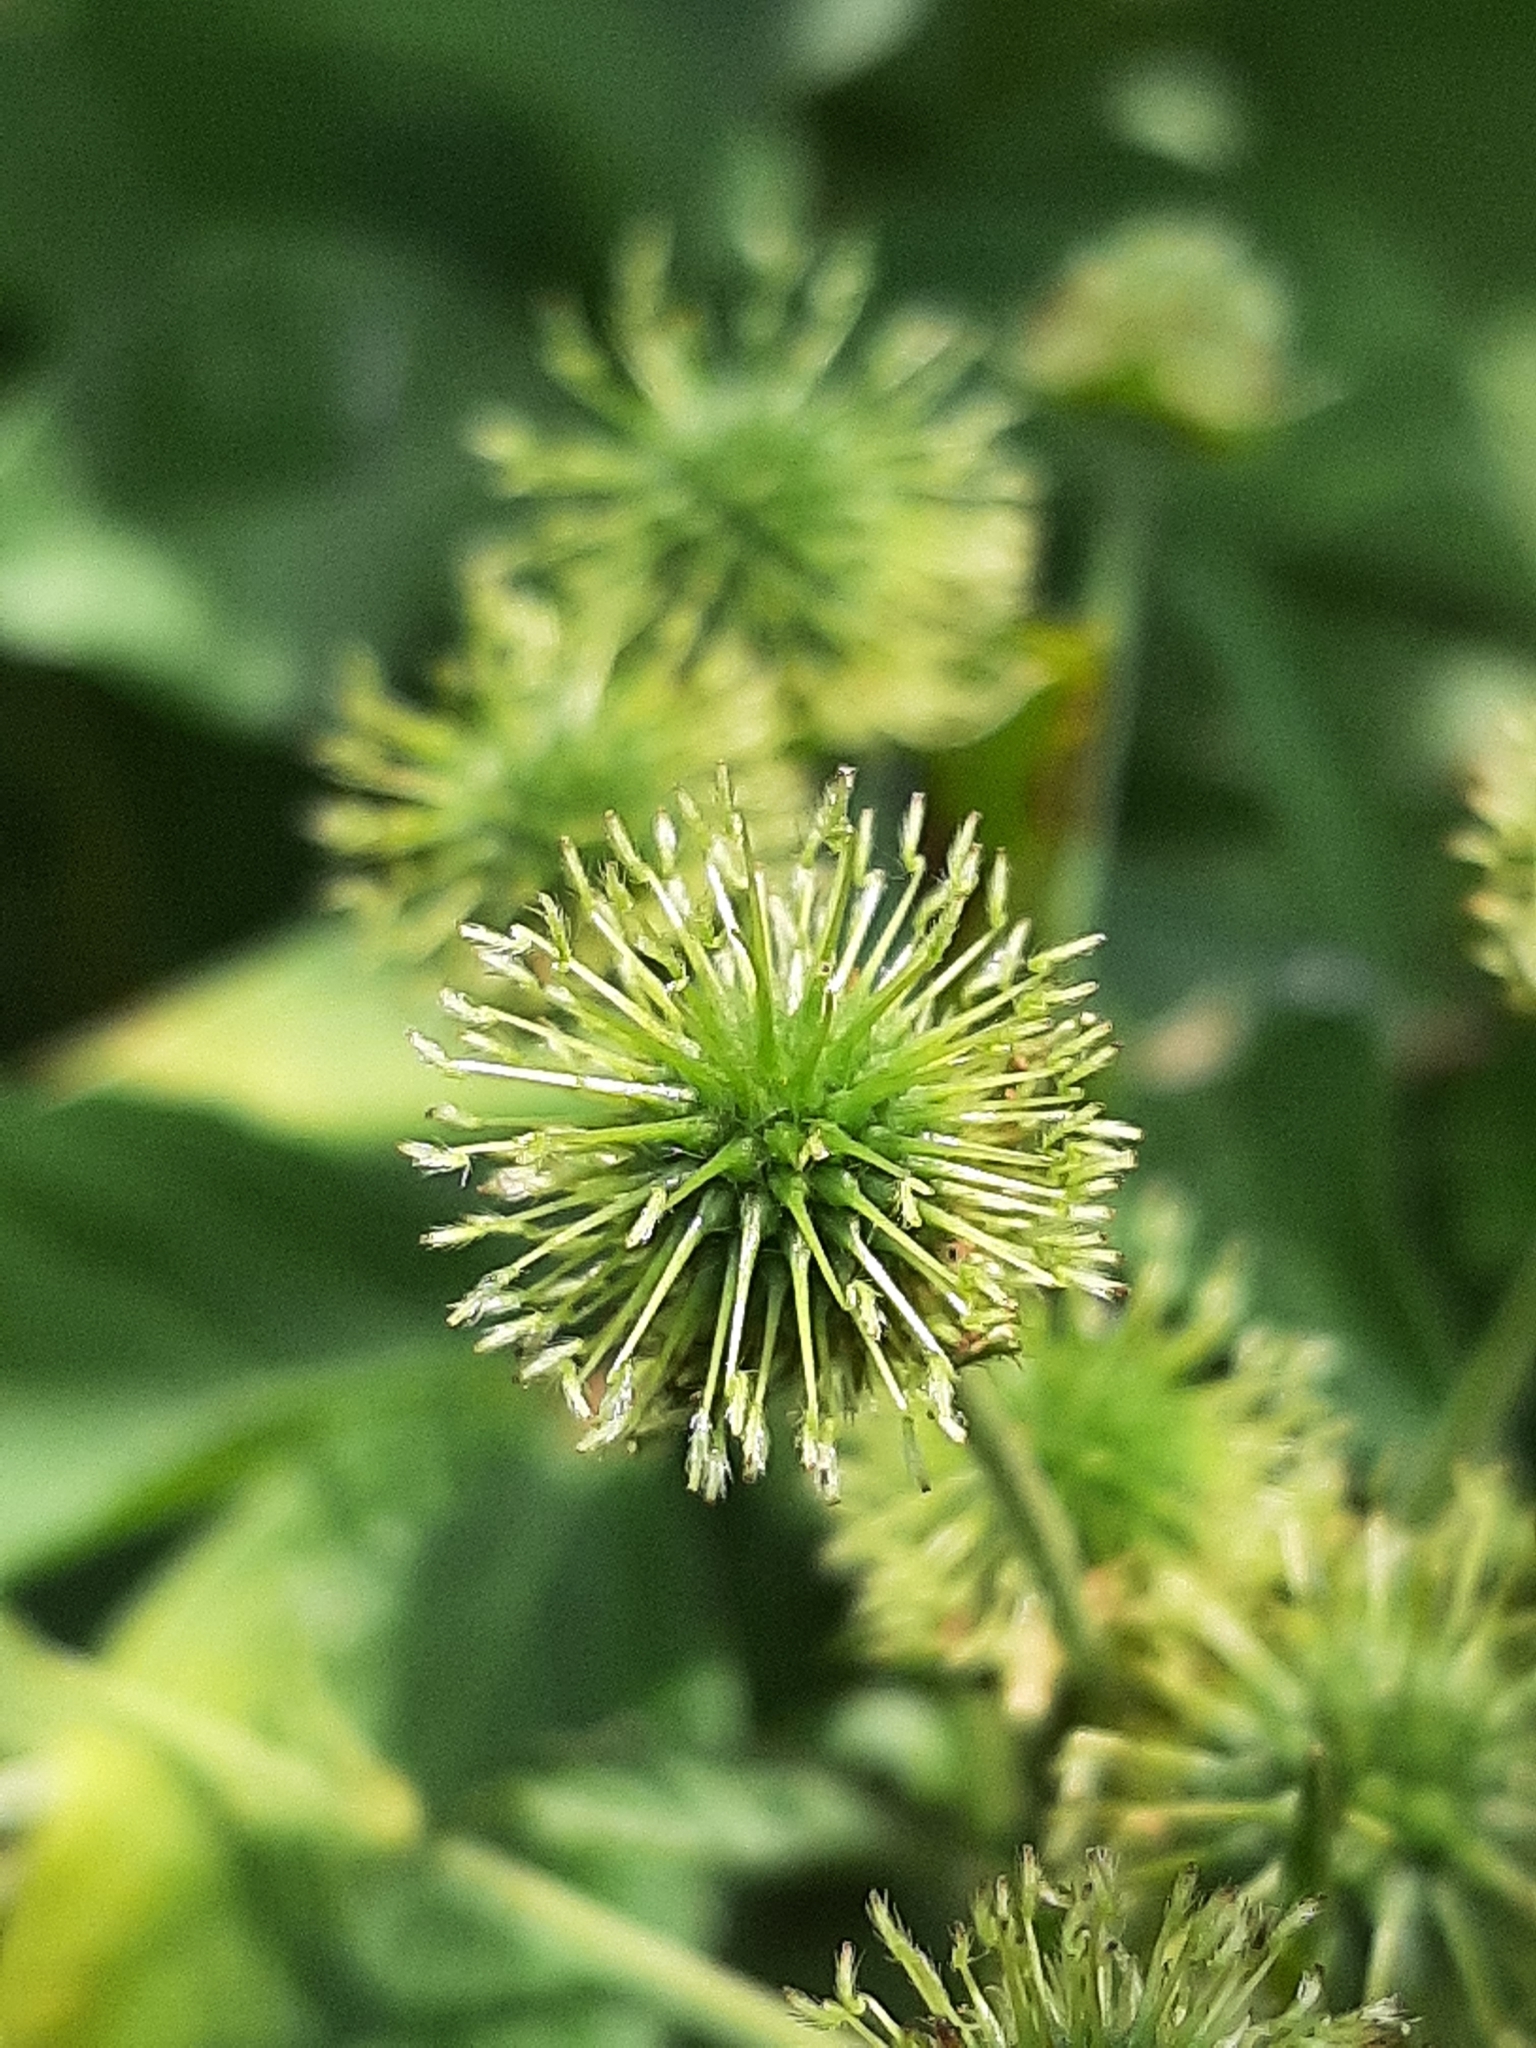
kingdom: Plantae
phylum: Tracheophyta
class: Magnoliopsida
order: Rosales
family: Rosaceae
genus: Geum
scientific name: Geum canadense
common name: White avens
